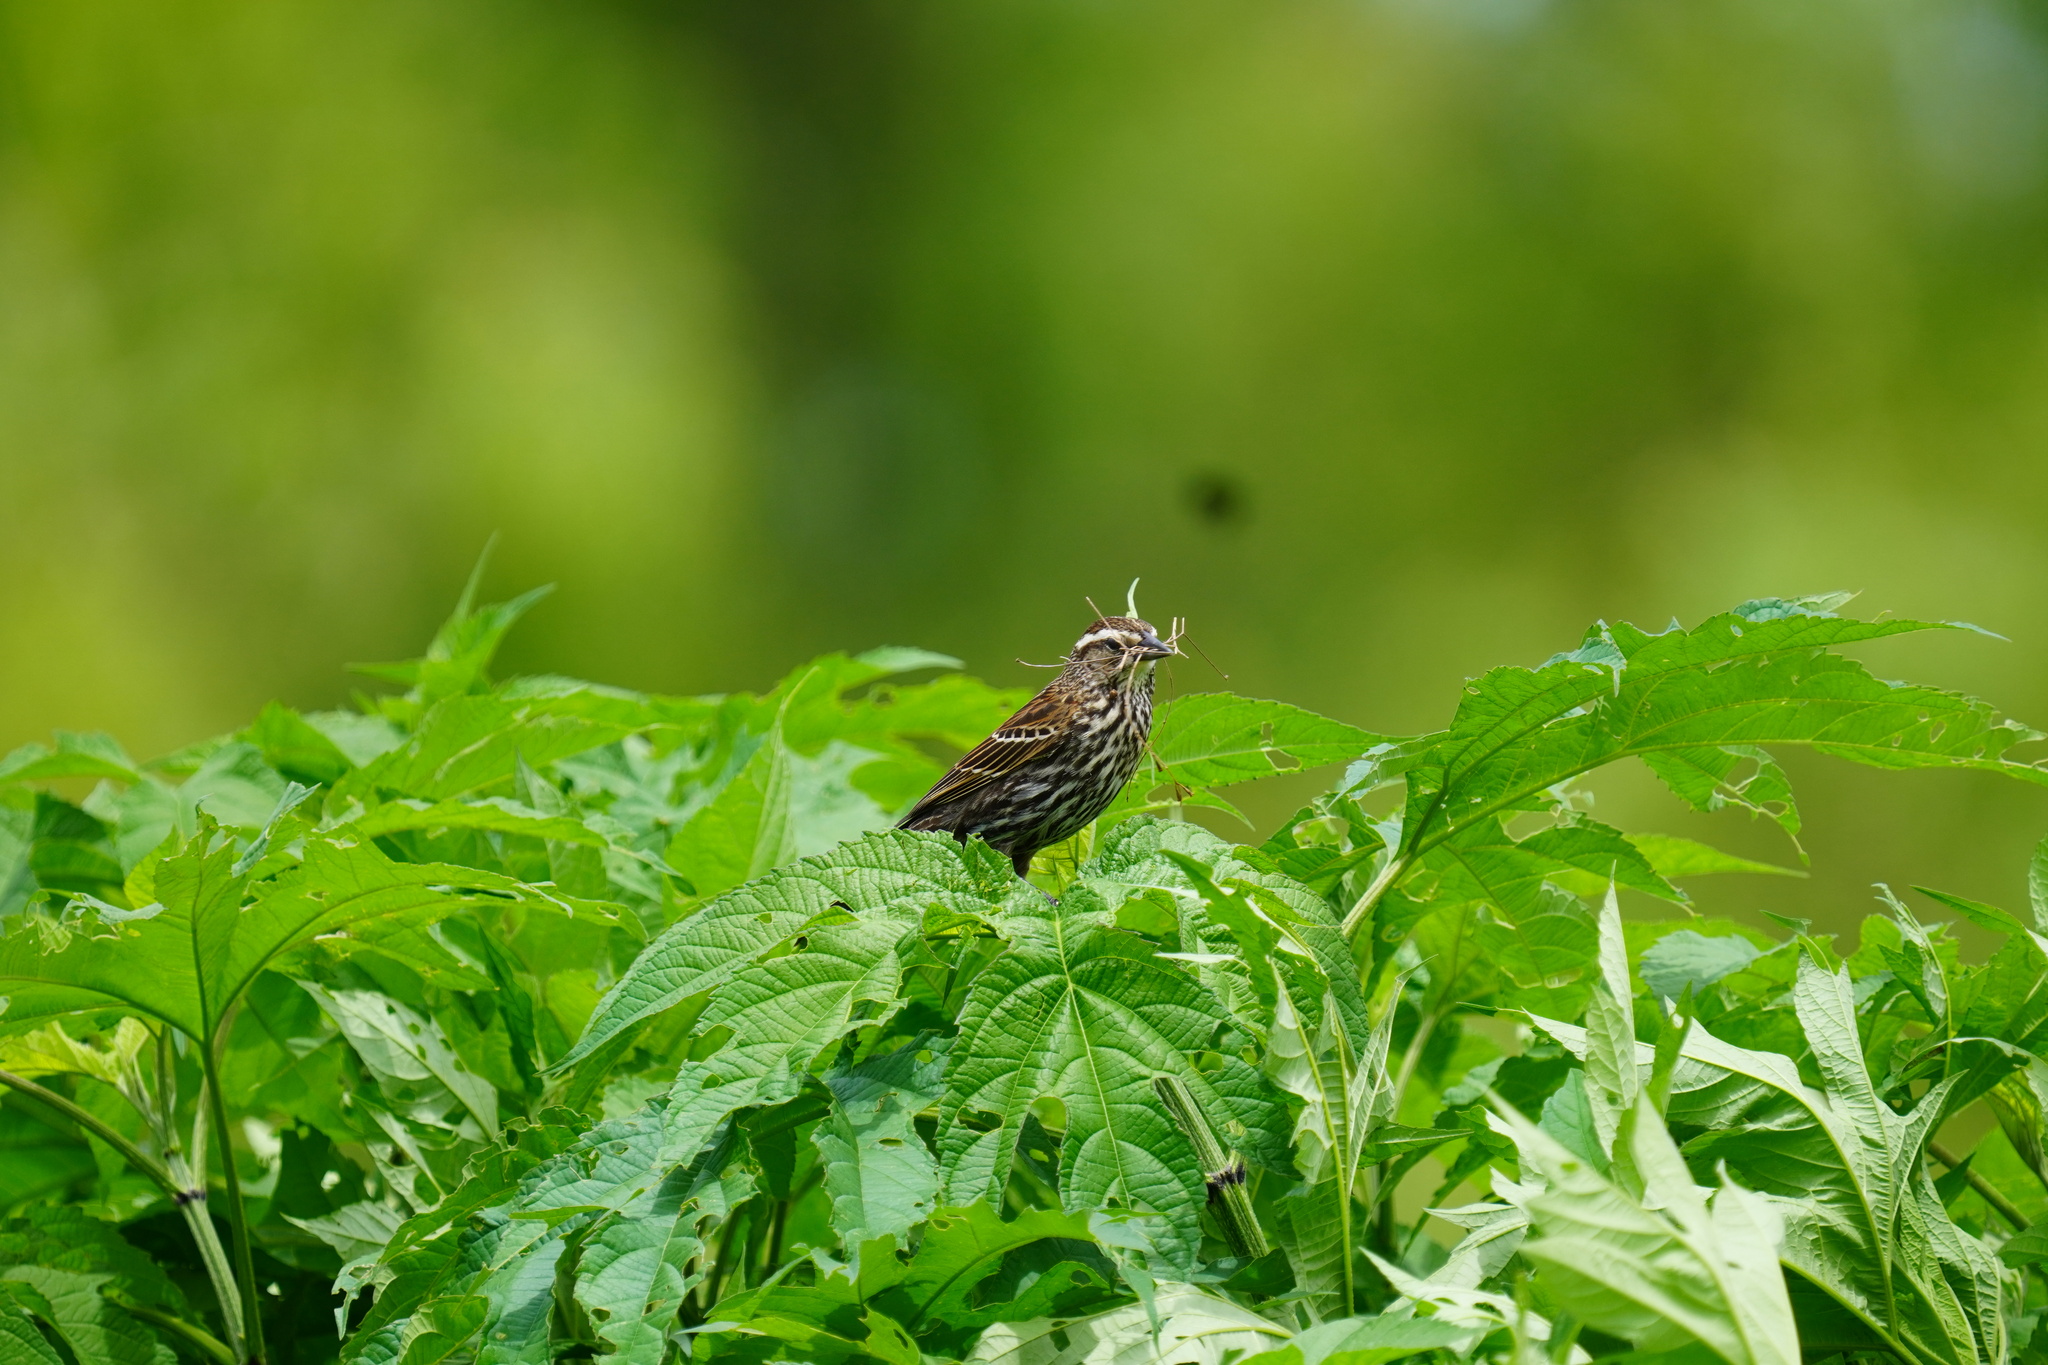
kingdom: Animalia
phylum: Chordata
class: Aves
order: Passeriformes
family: Icteridae
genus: Agelaius
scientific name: Agelaius phoeniceus
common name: Red-winged blackbird
